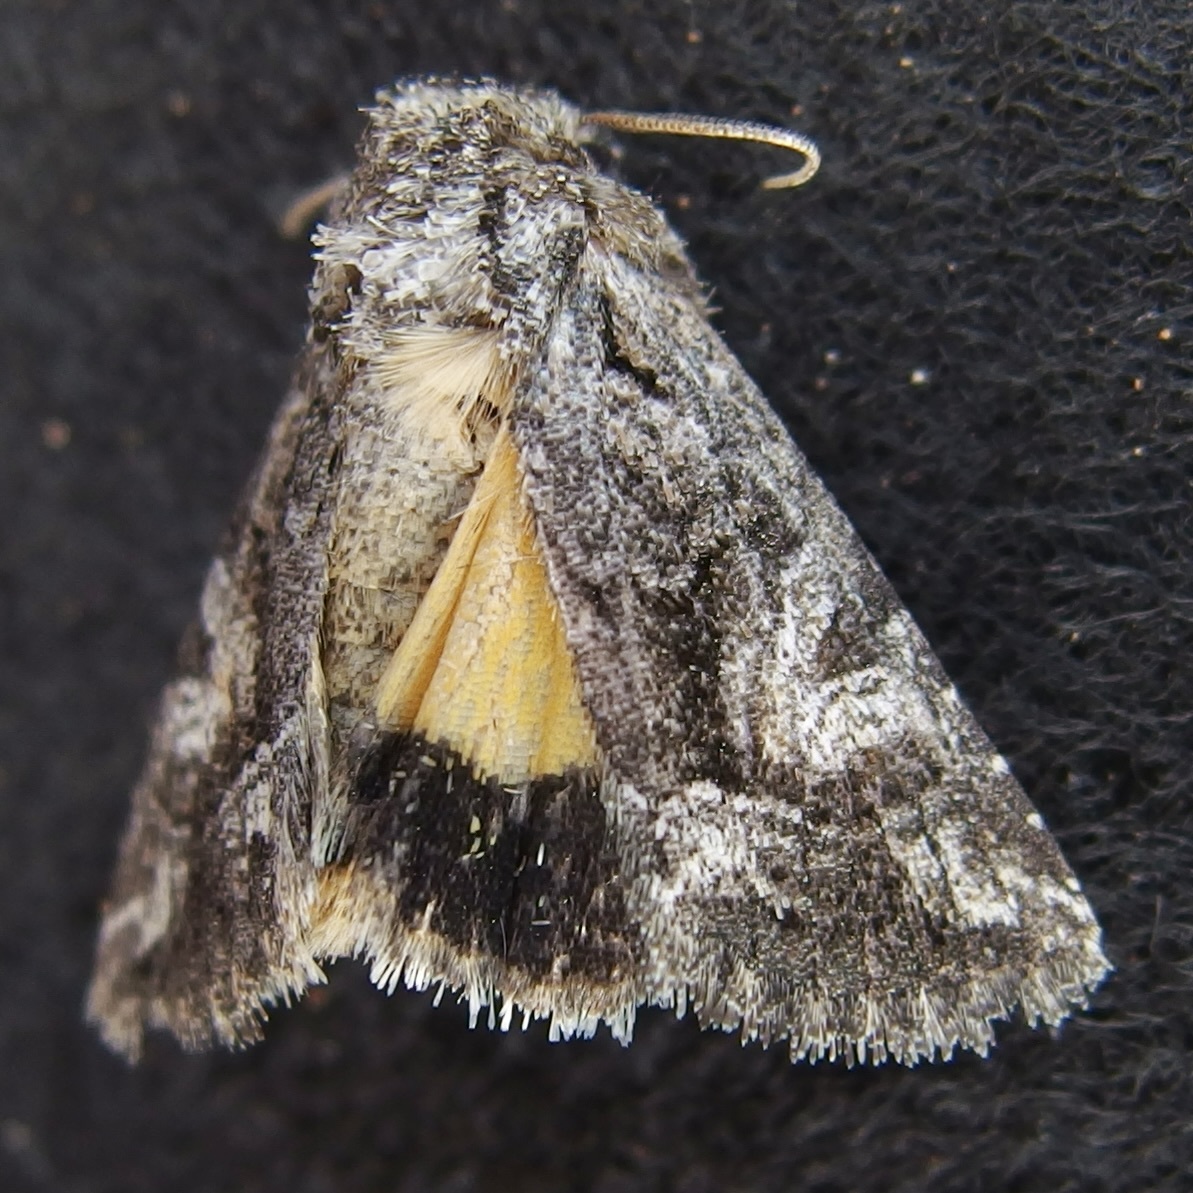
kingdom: Animalia
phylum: Arthropoda
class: Insecta
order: Lepidoptera
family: Noctuidae
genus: Pseudanarta
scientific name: Pseudanarta crocea
